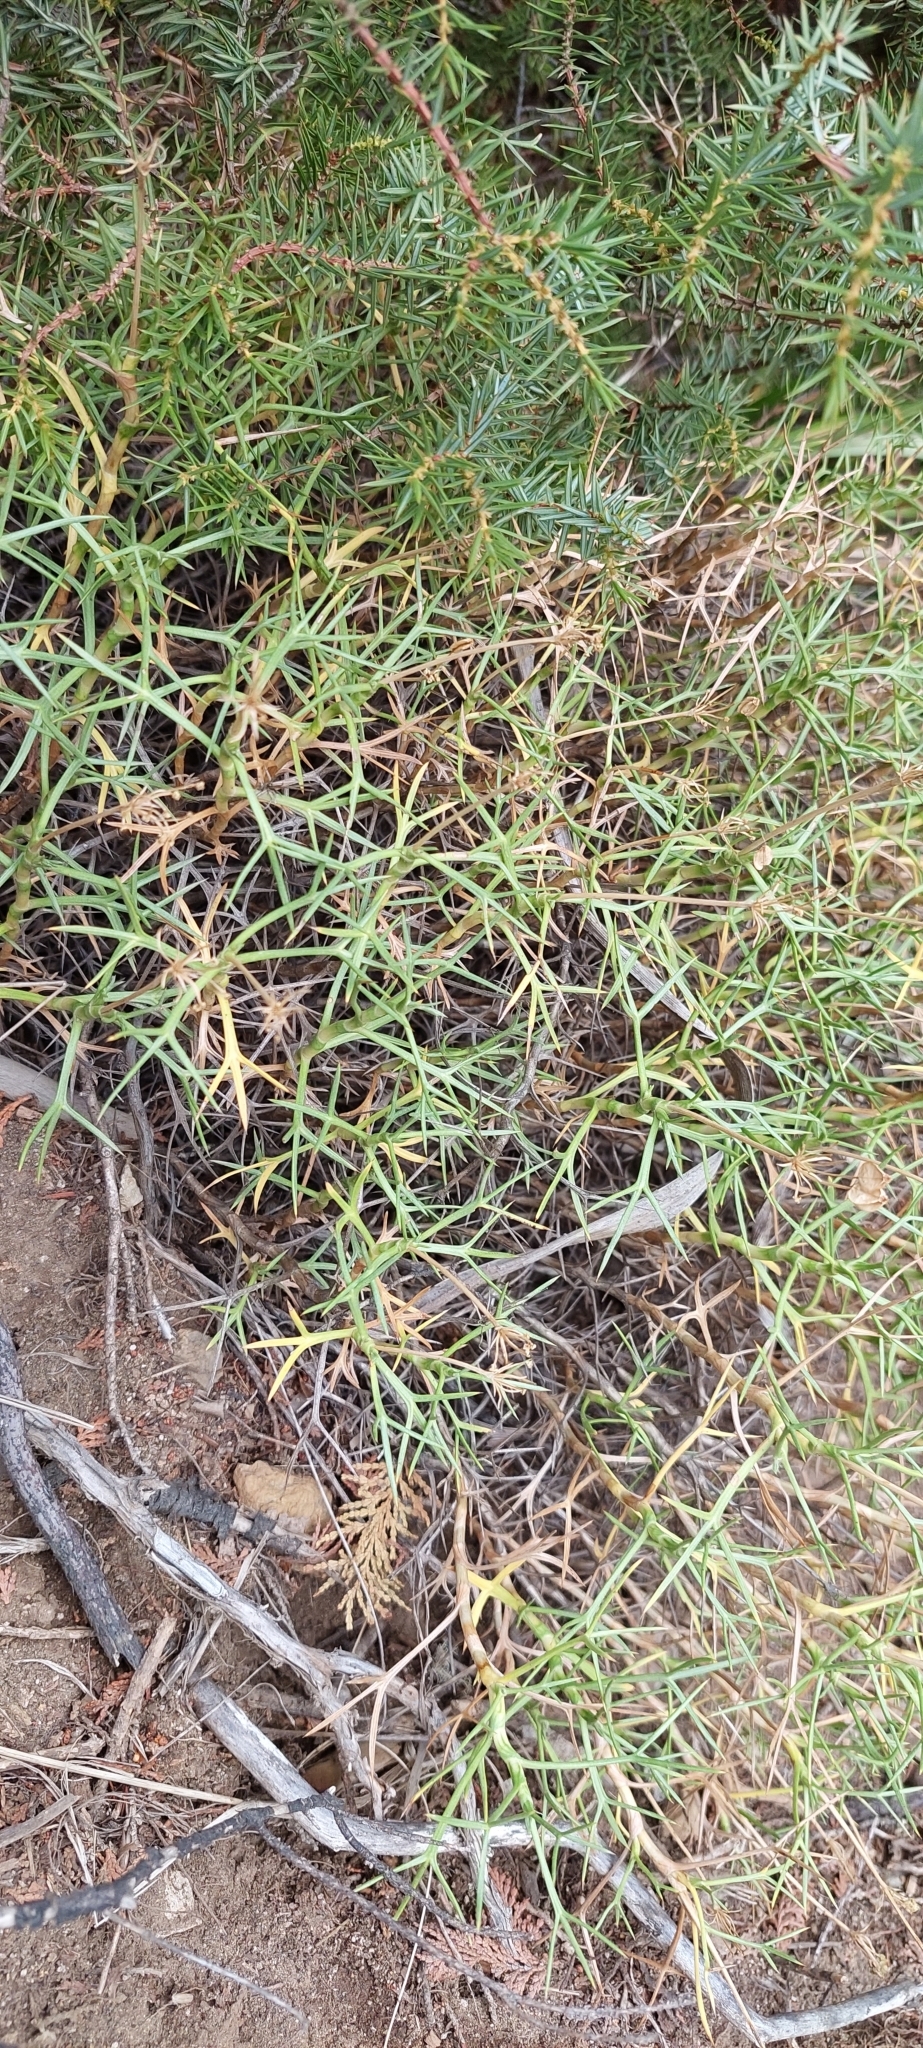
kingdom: Plantae
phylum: Tracheophyta
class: Magnoliopsida
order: Apiales
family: Apiaceae
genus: Azorella
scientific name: Azorella prolifera
